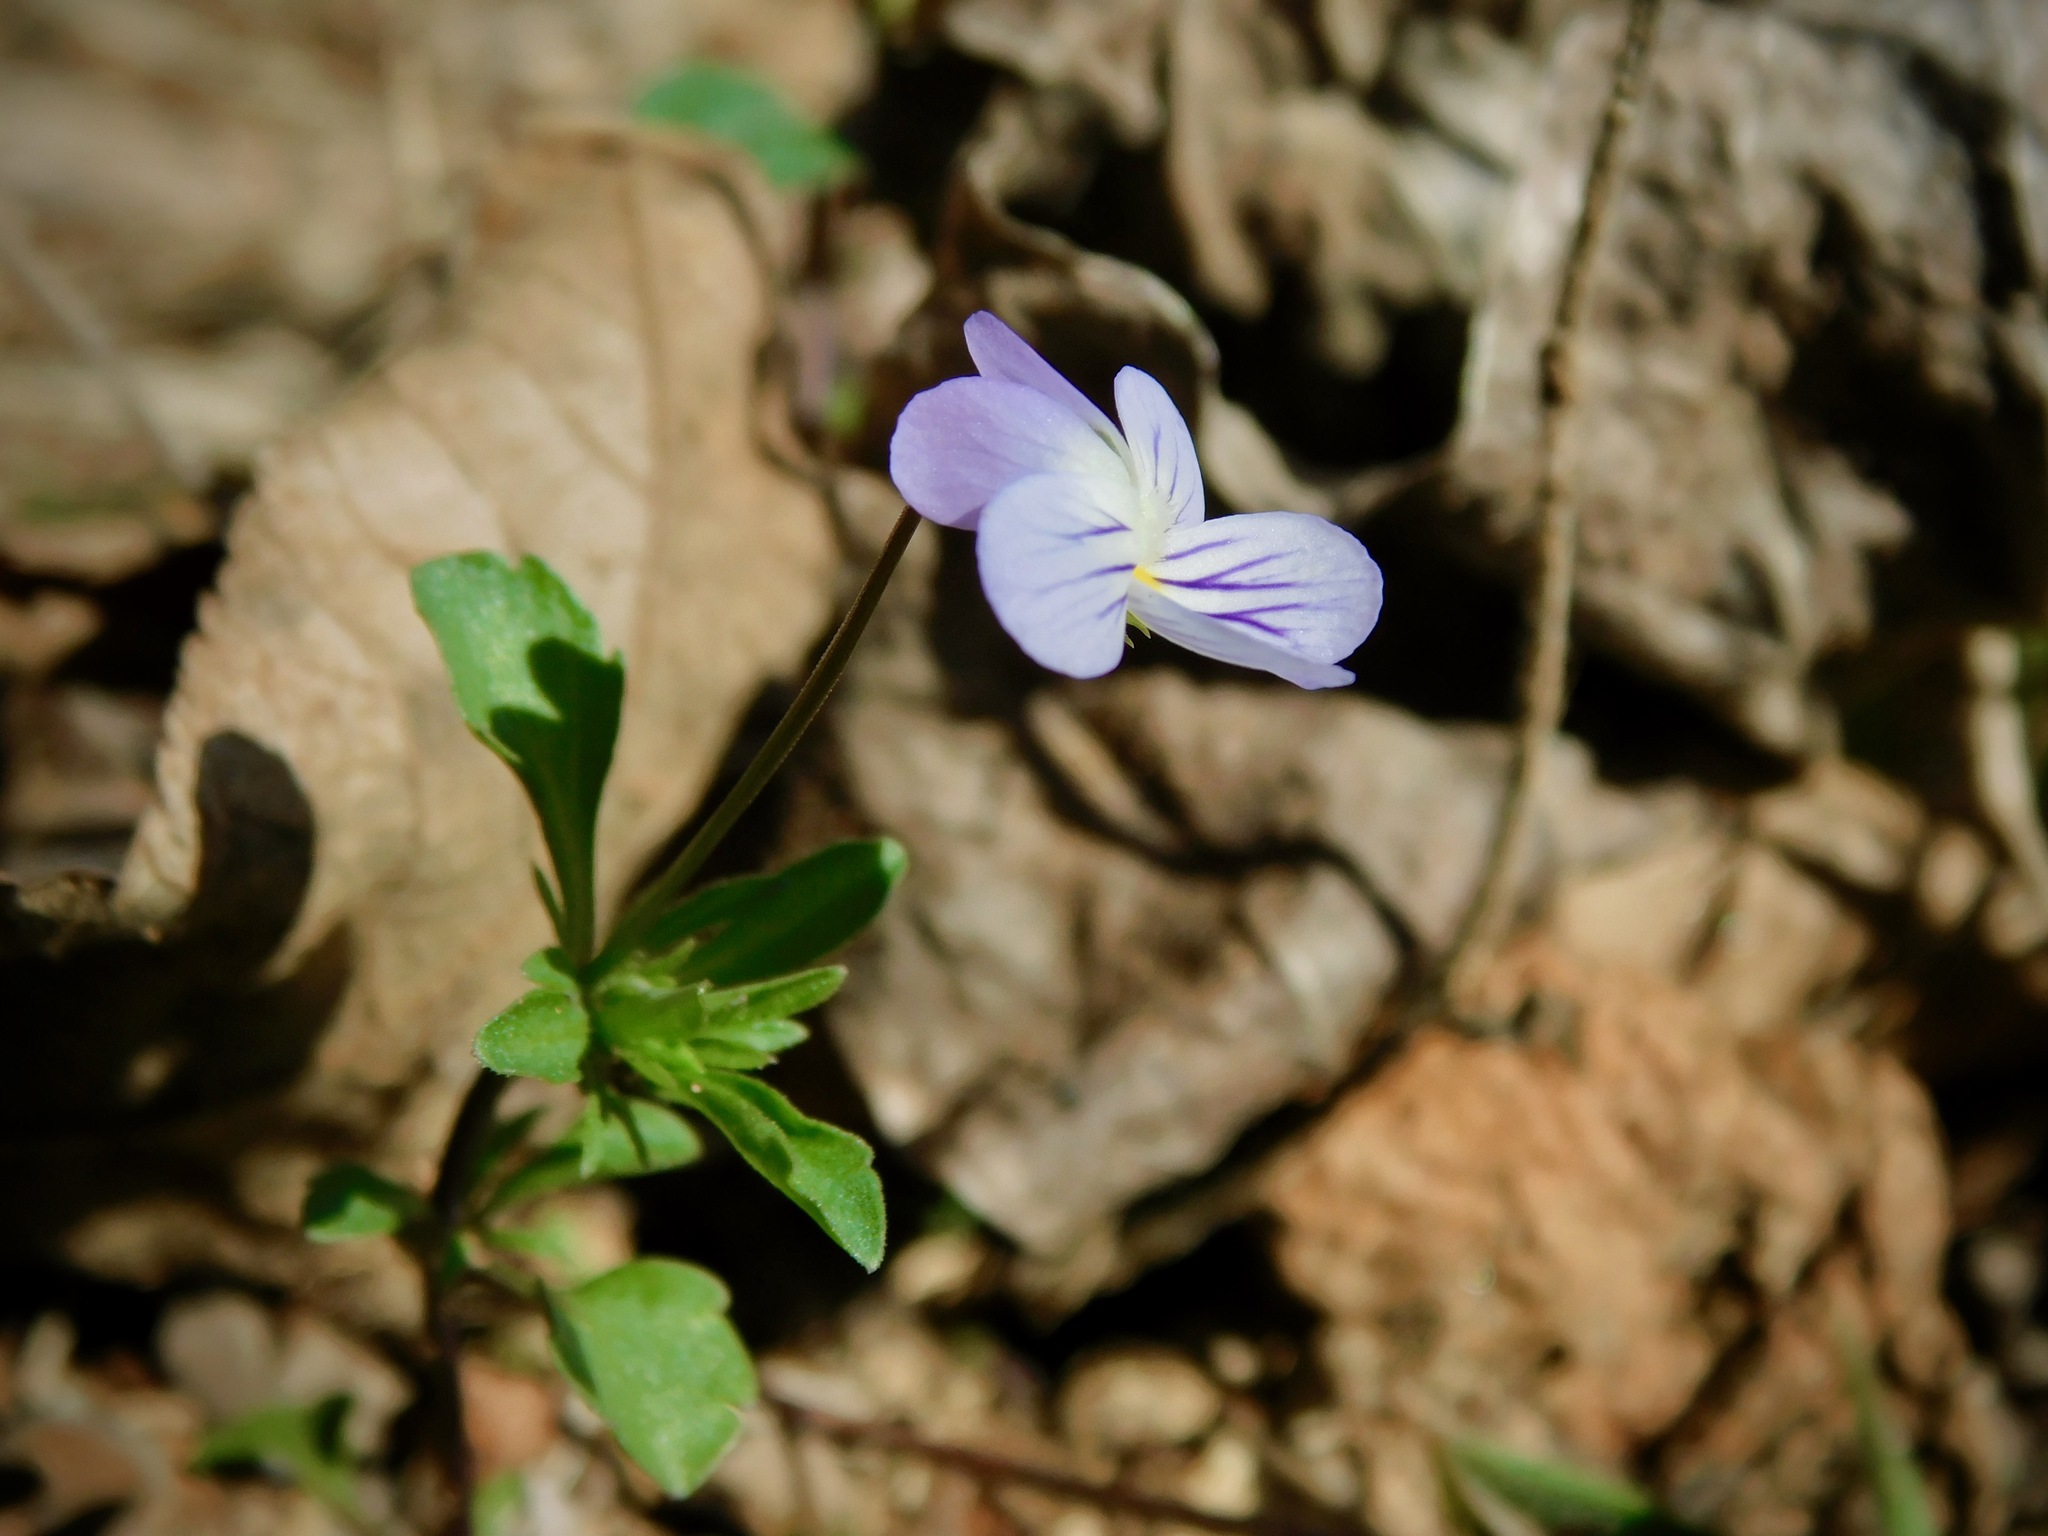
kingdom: Plantae
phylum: Tracheophyta
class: Magnoliopsida
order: Malpighiales
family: Violaceae
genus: Viola
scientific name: Viola rafinesquei
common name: American field pansy
